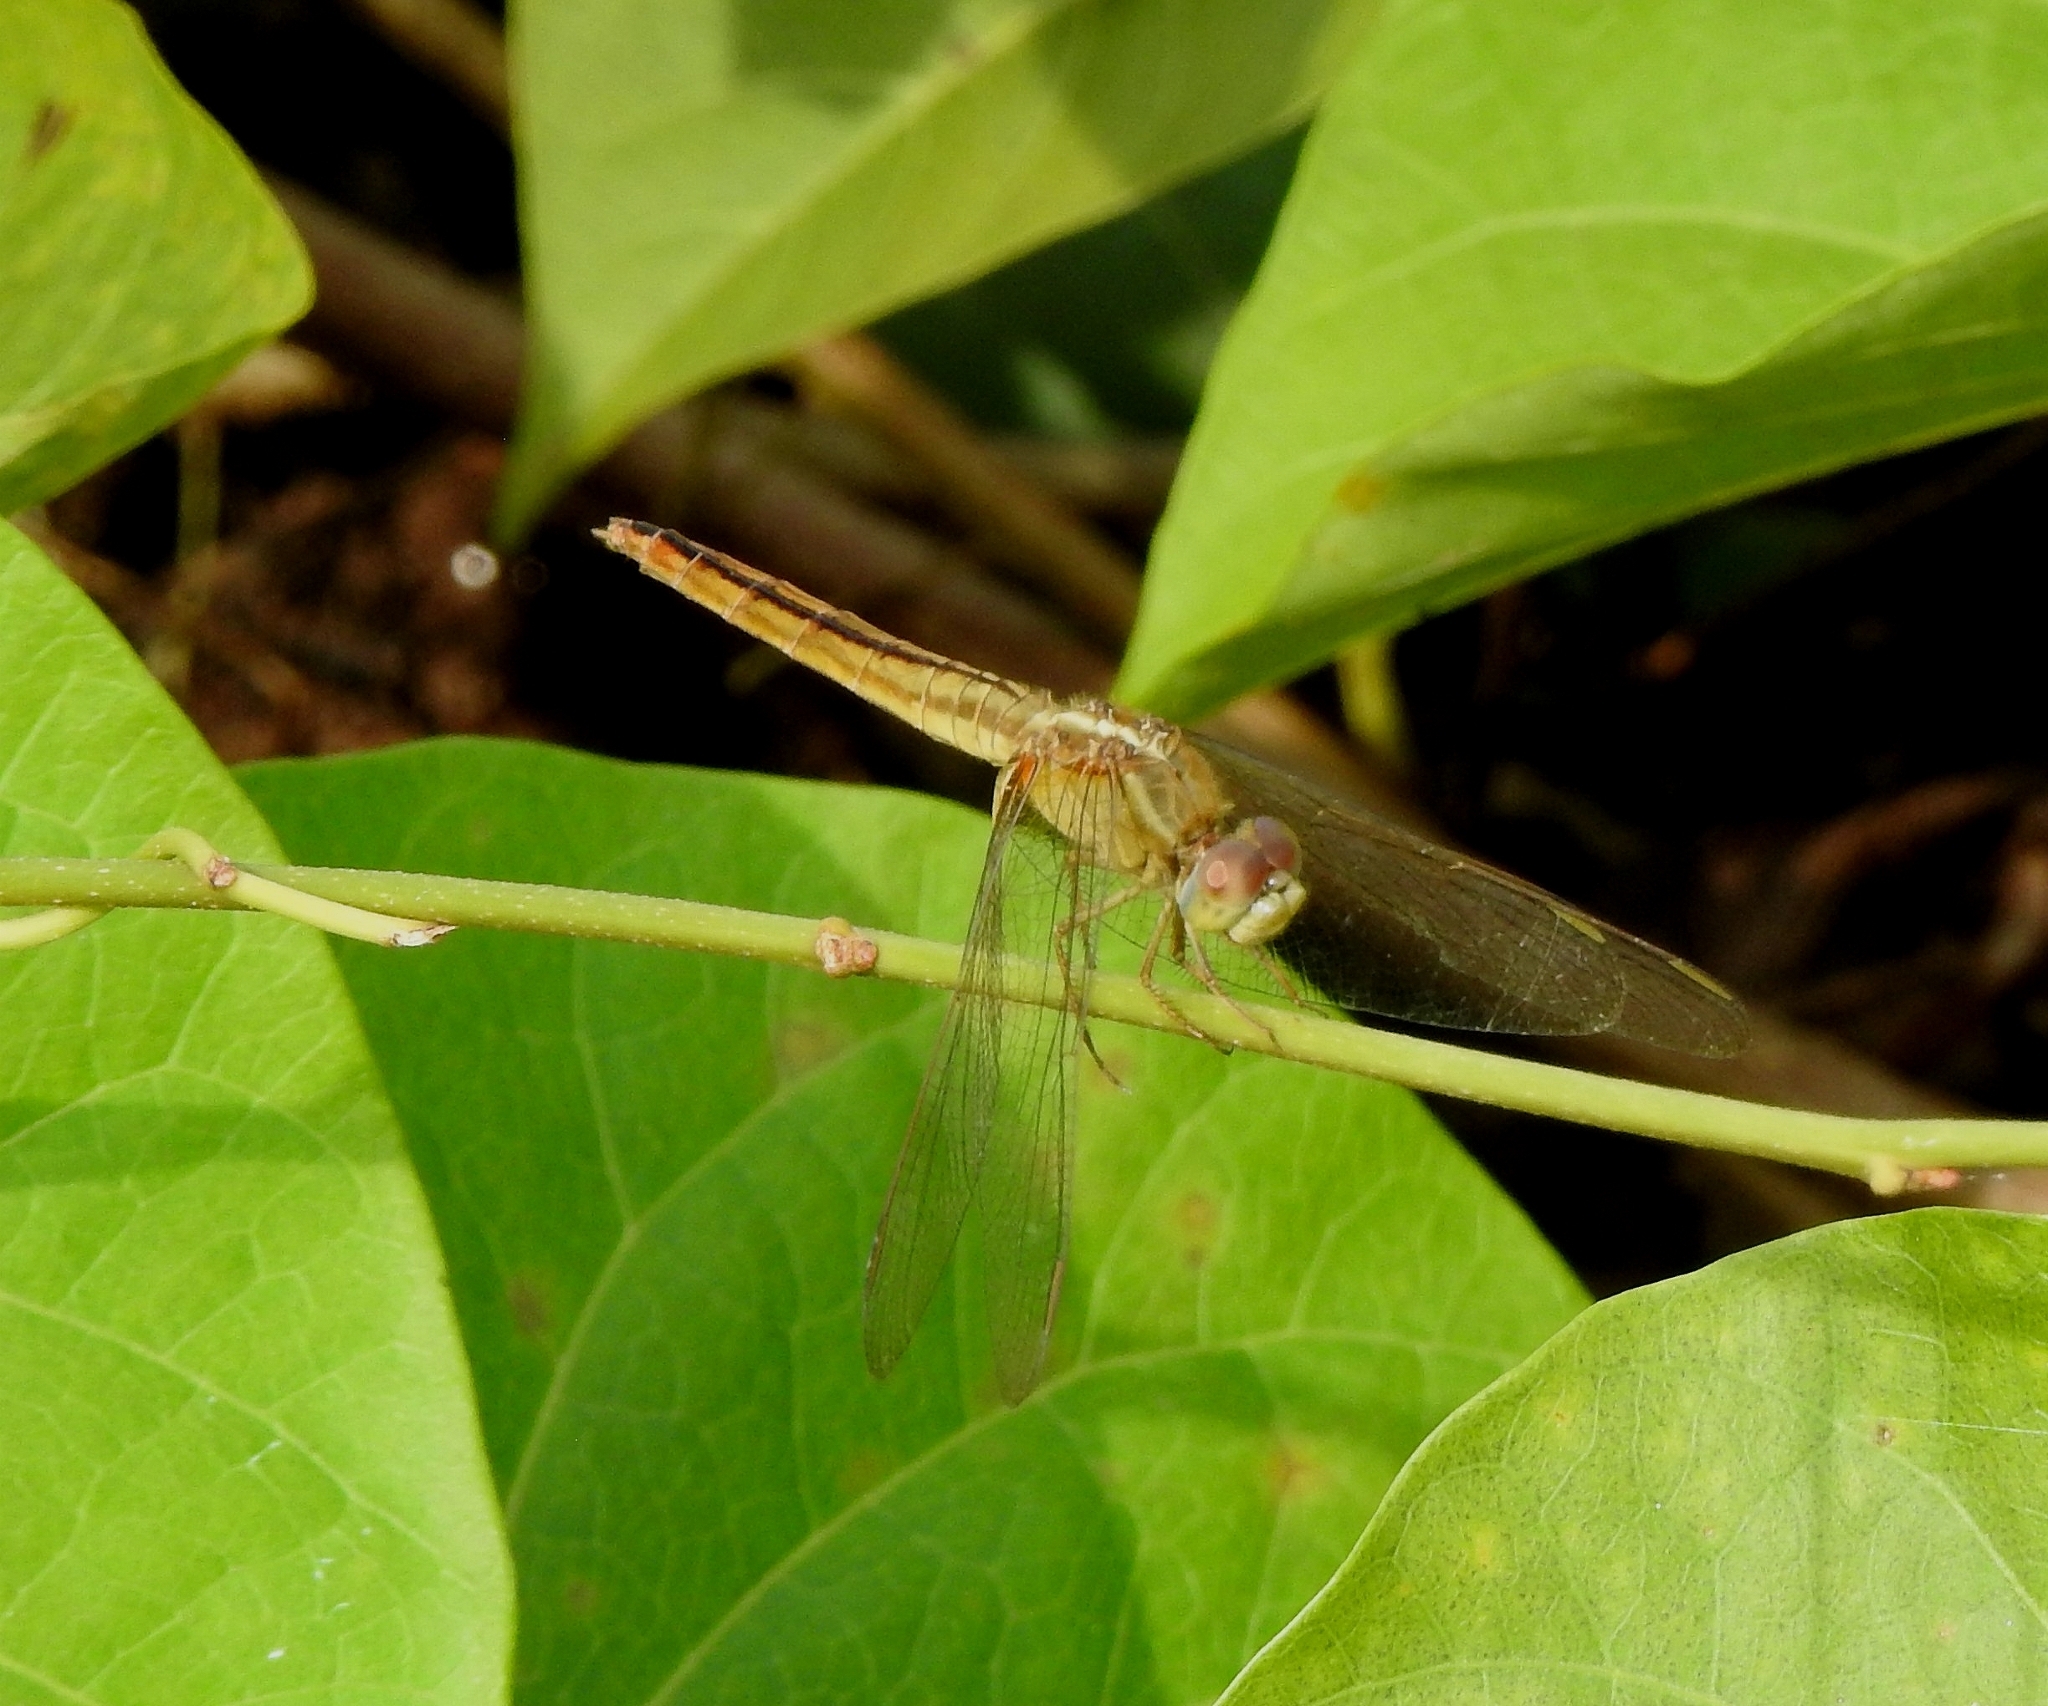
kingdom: Animalia
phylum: Arthropoda
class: Insecta
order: Odonata
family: Libellulidae
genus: Crocothemis
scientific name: Crocothemis servilia
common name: Scarlet skimmer
